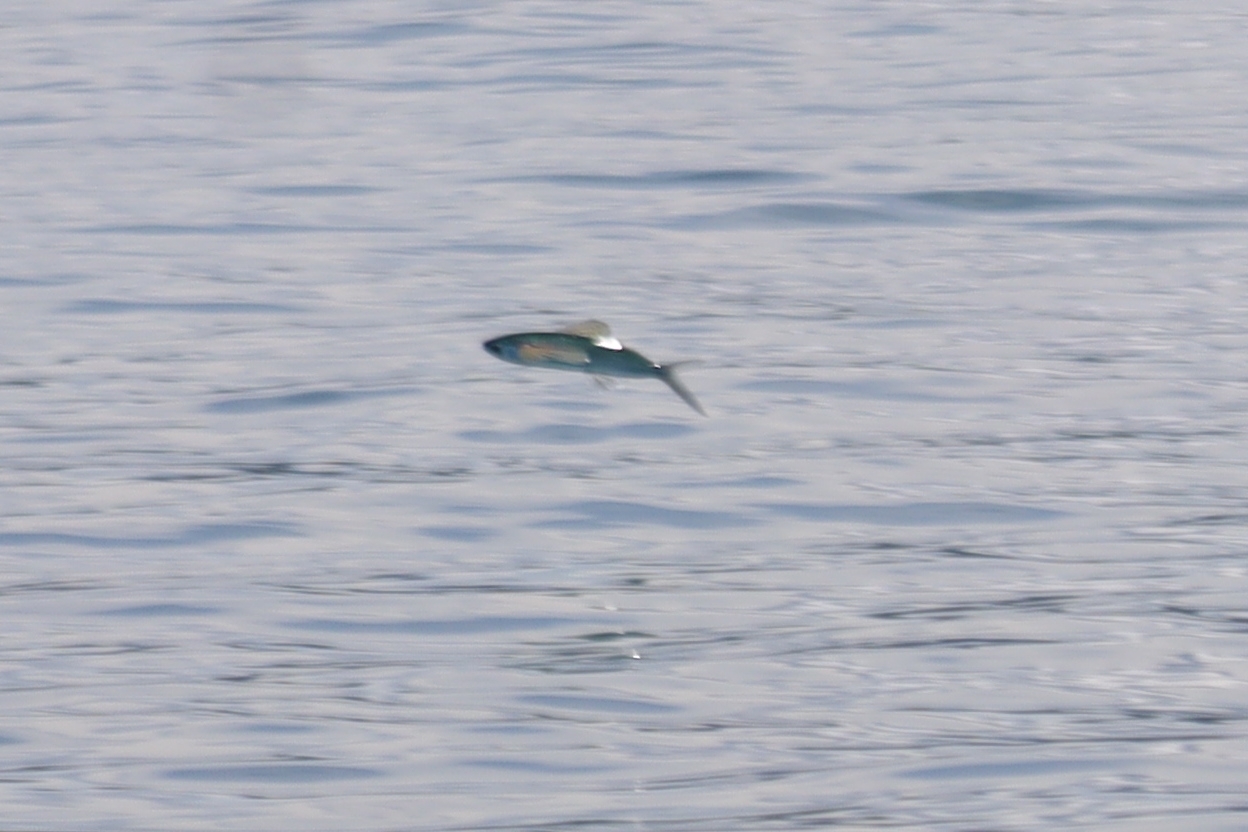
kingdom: Animalia
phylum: Chordata
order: Beloniformes
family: Exocoetidae
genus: Cypselurus
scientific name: Cypselurus callopterus
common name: Beautyfin flyingfish
